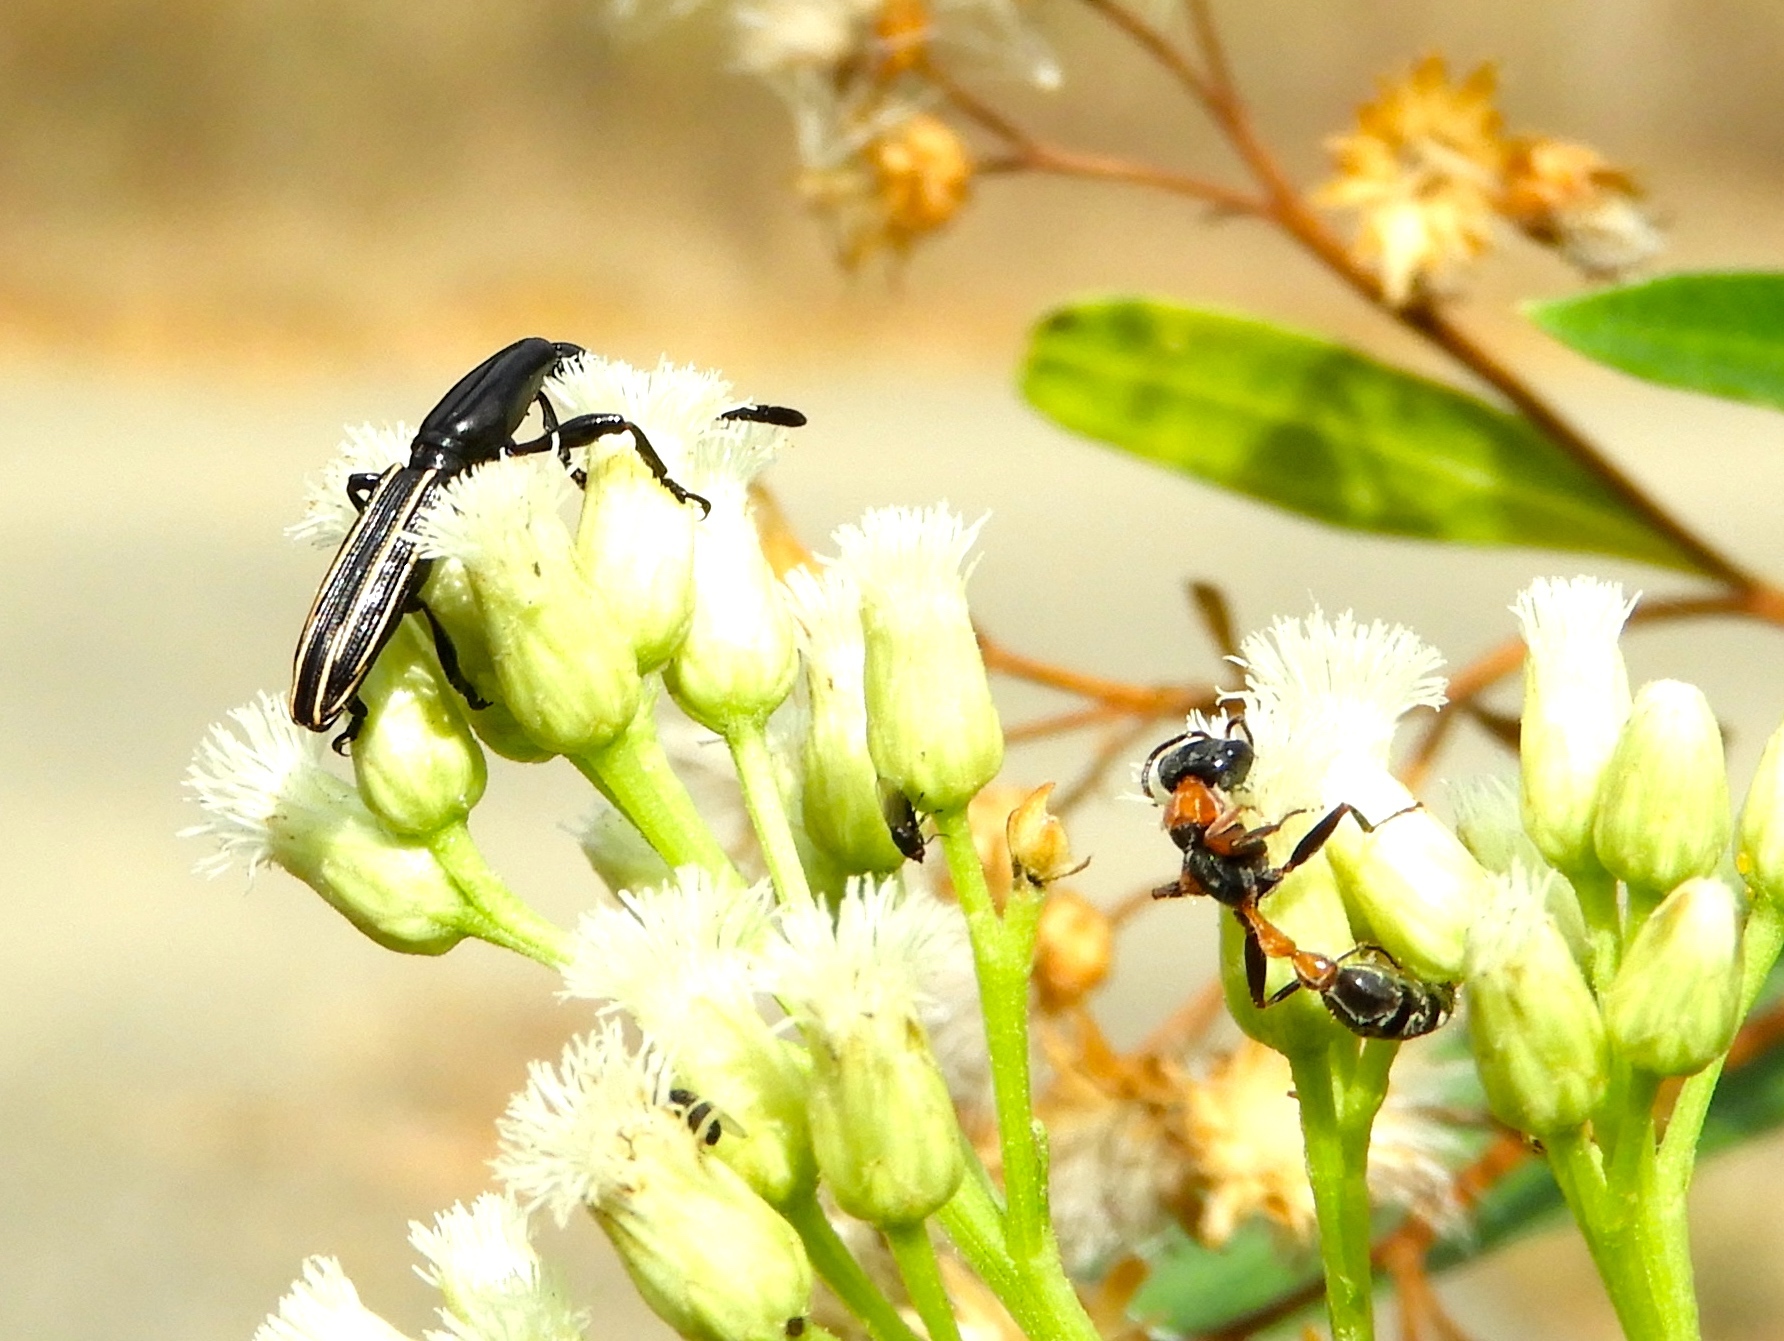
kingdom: Animalia
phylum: Arthropoda
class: Insecta
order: Hymenoptera
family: Formicidae
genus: Pseudomyrmex
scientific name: Pseudomyrmex gracilis
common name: Graceful twig ant
